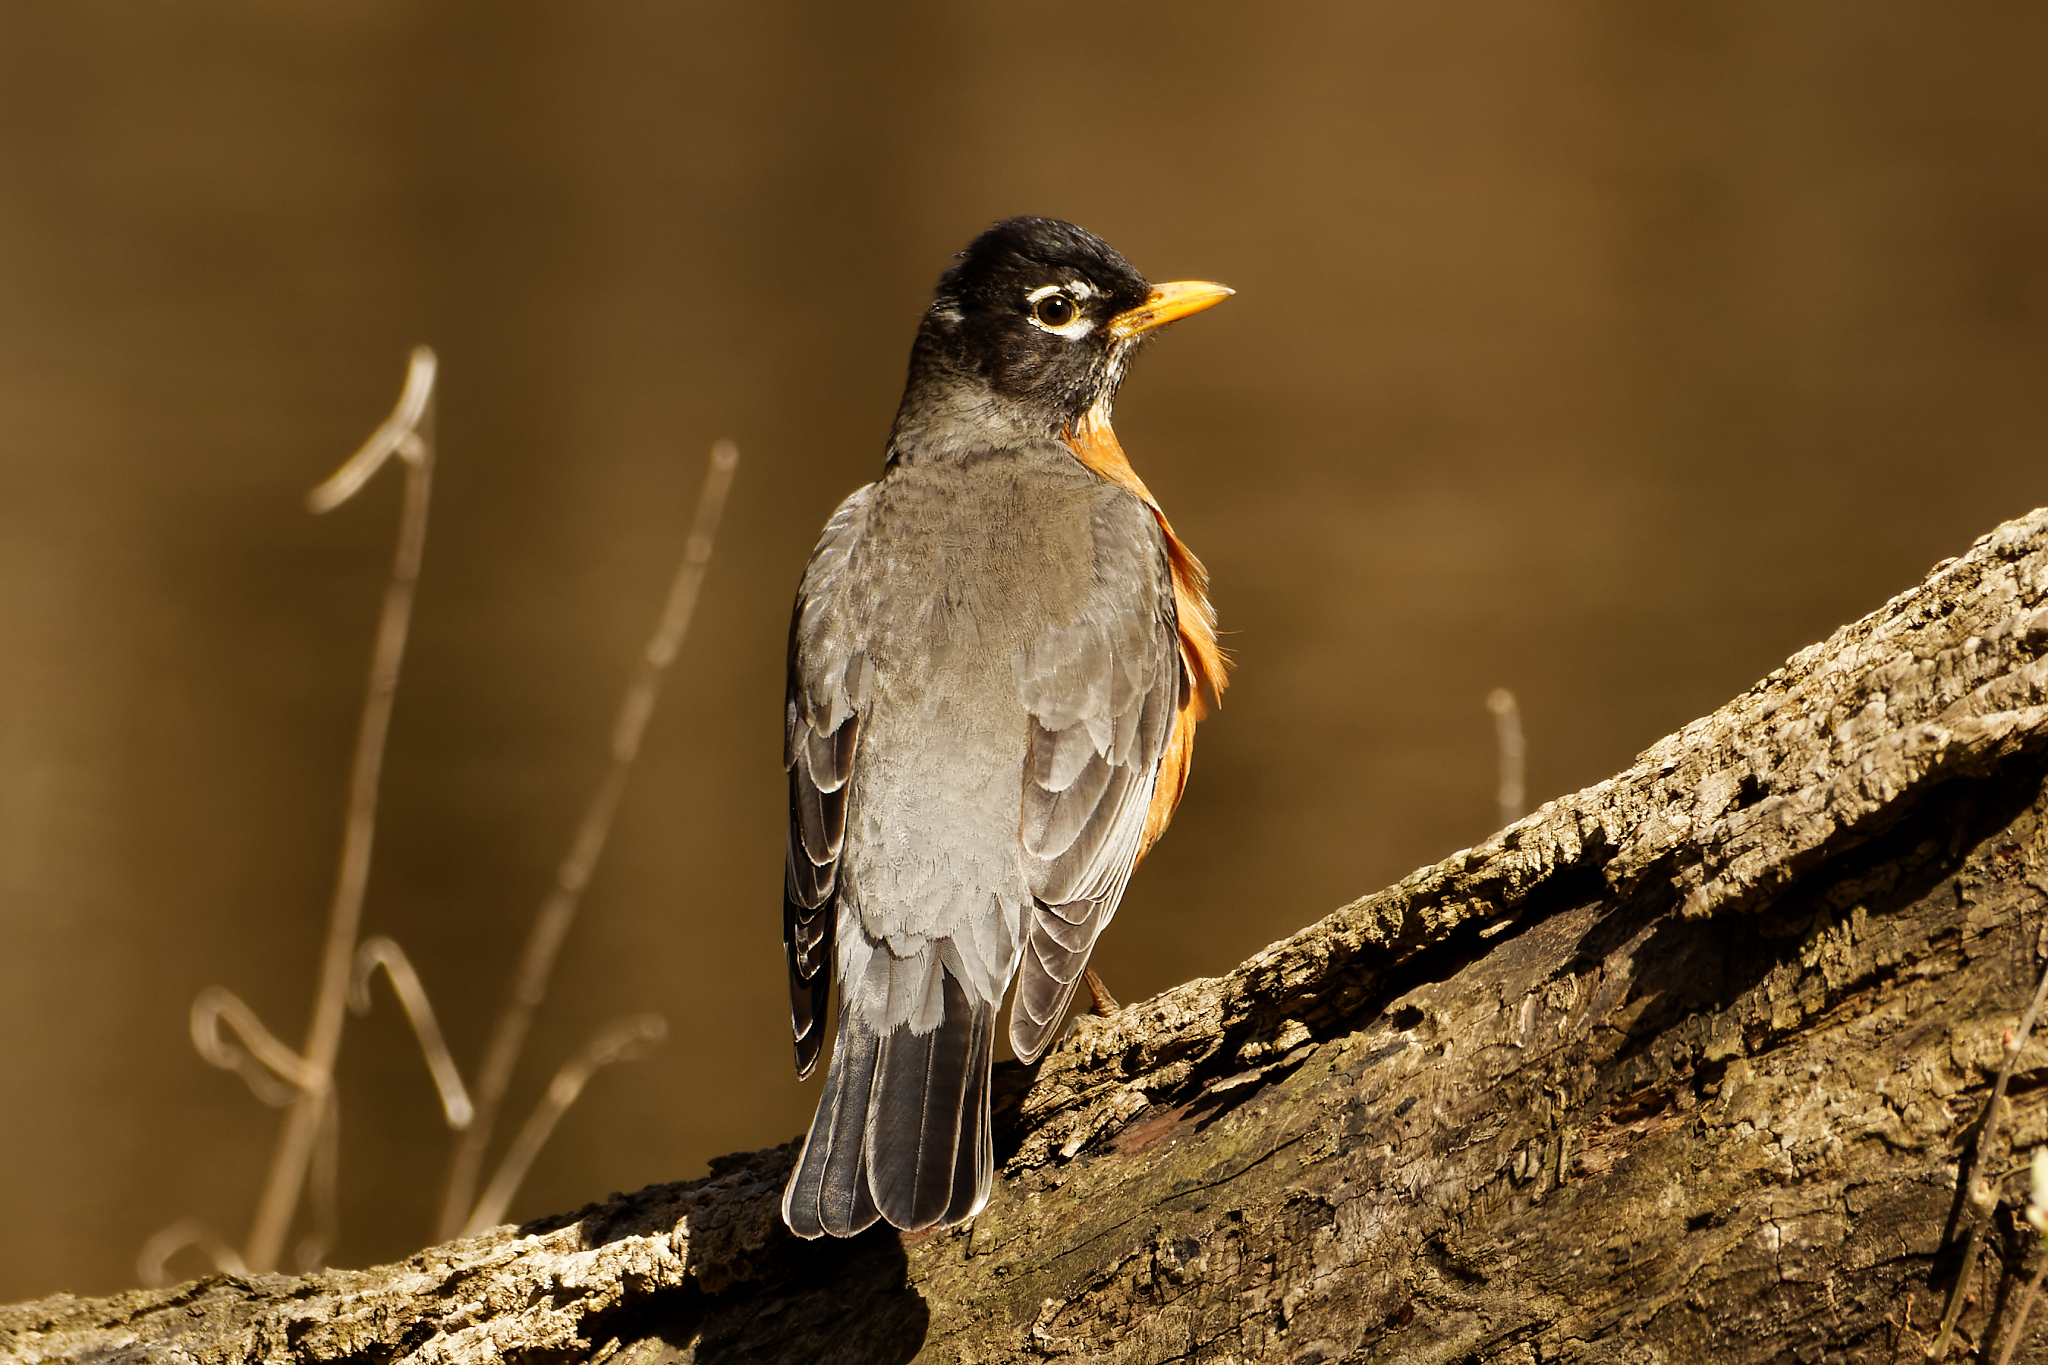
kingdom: Animalia
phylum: Chordata
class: Aves
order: Passeriformes
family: Turdidae
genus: Turdus
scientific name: Turdus migratorius
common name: American robin
